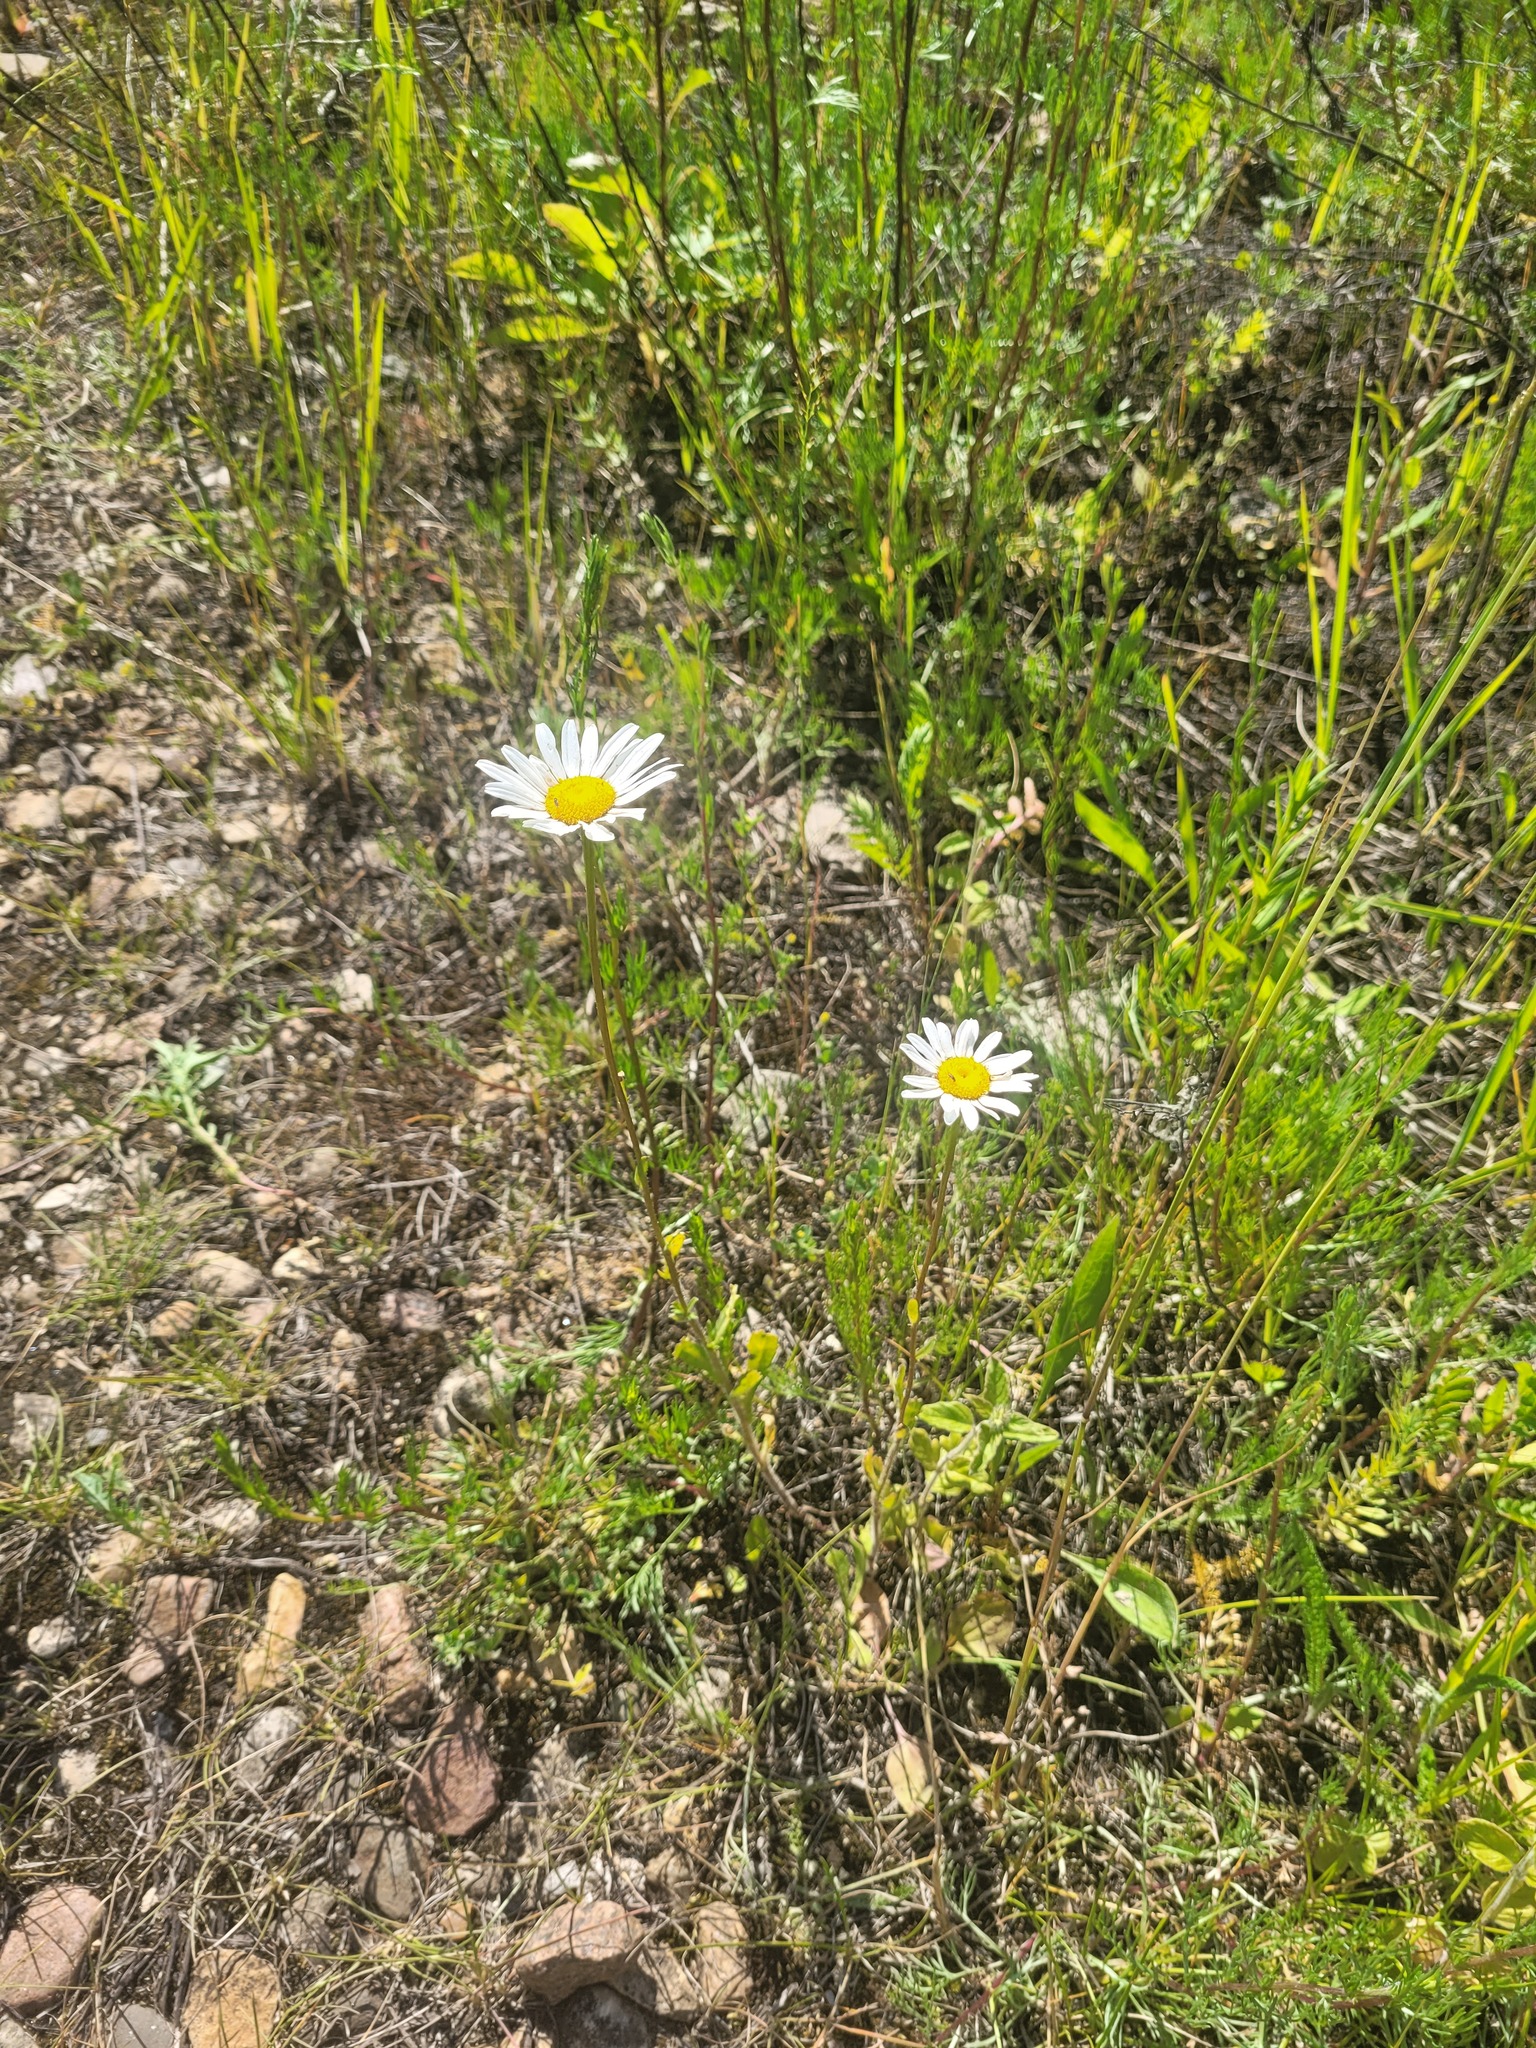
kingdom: Plantae
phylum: Tracheophyta
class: Magnoliopsida
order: Asterales
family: Asteraceae
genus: Leucanthemum
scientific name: Leucanthemum vulgare
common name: Oxeye daisy
